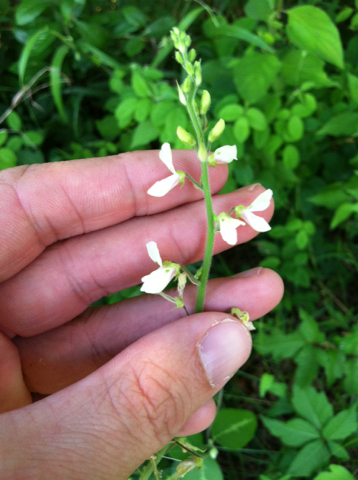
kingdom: Plantae
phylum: Tracheophyta
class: Magnoliopsida
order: Fabales
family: Fabaceae
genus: Desmodium
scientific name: Desmodium tweedyi
